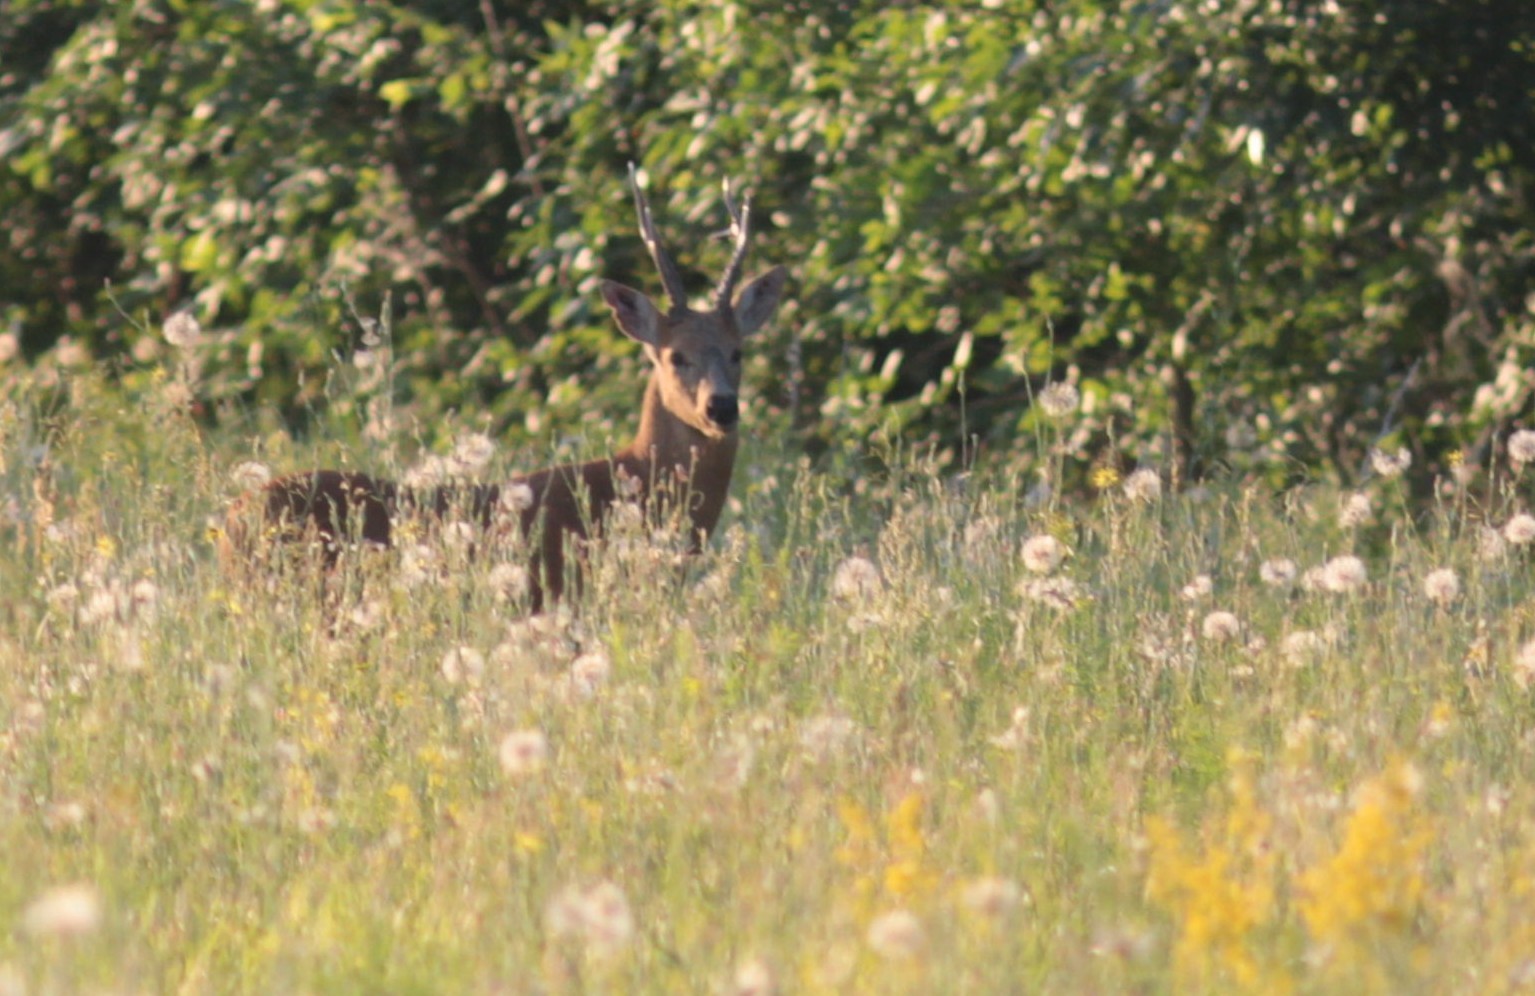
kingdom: Animalia
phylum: Chordata
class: Mammalia
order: Artiodactyla
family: Cervidae
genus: Capreolus
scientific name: Capreolus pygargus
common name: Siberian roe
